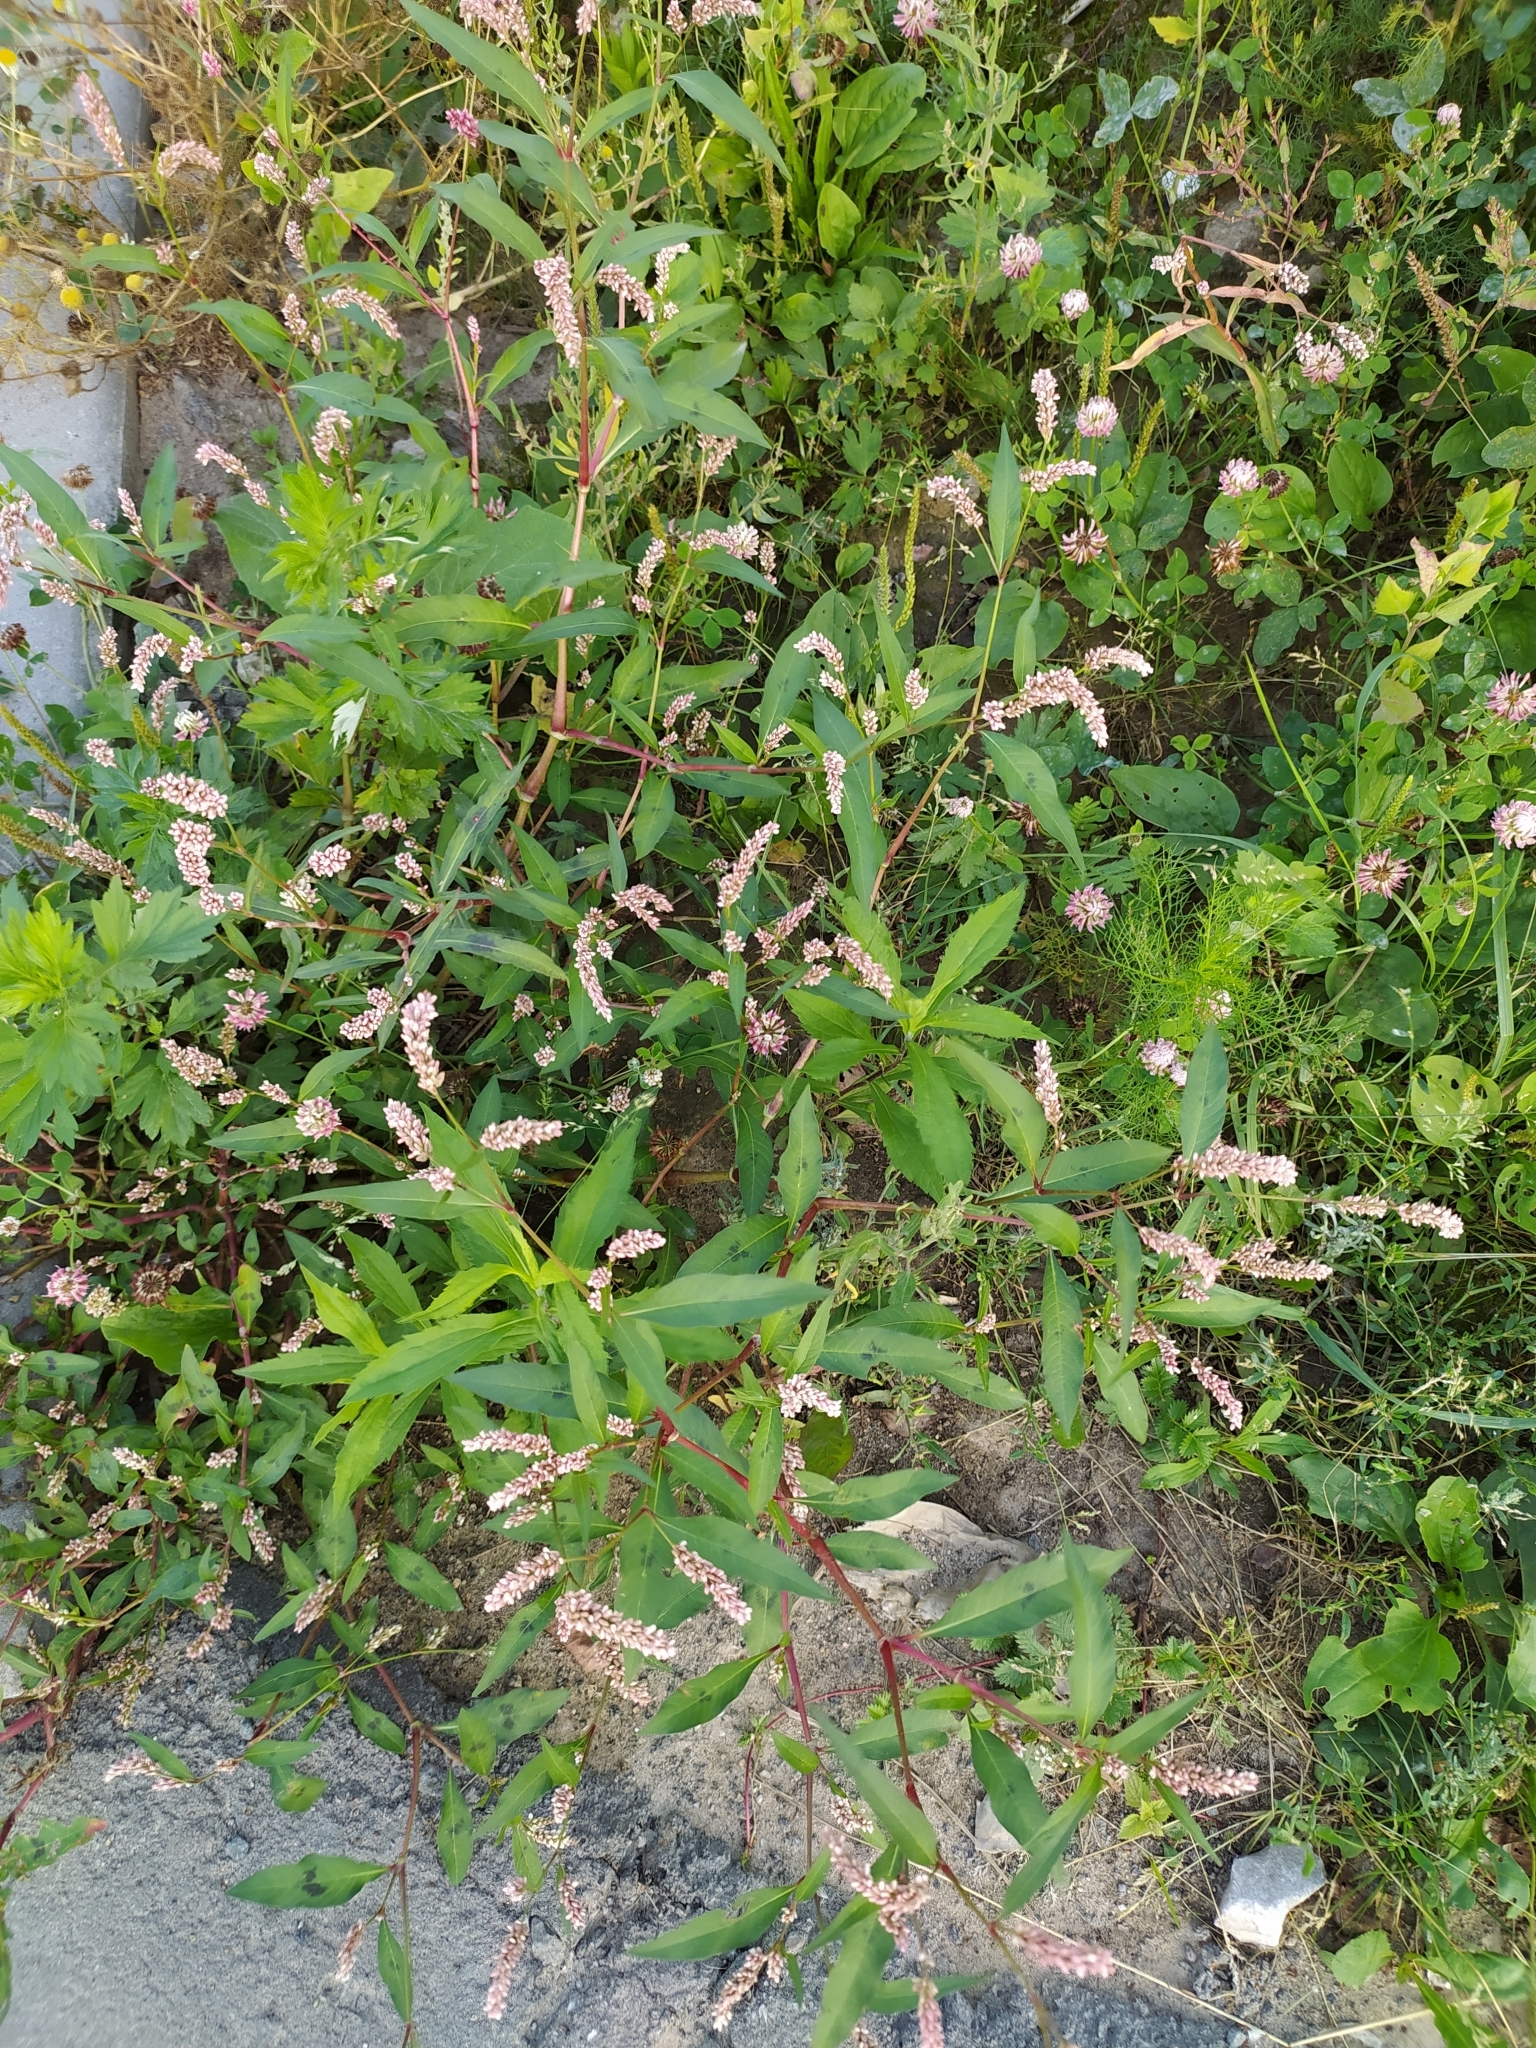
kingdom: Plantae
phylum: Tracheophyta
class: Magnoliopsida
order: Caryophyllales
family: Polygonaceae
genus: Persicaria
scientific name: Persicaria maculosa
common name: Redshank
